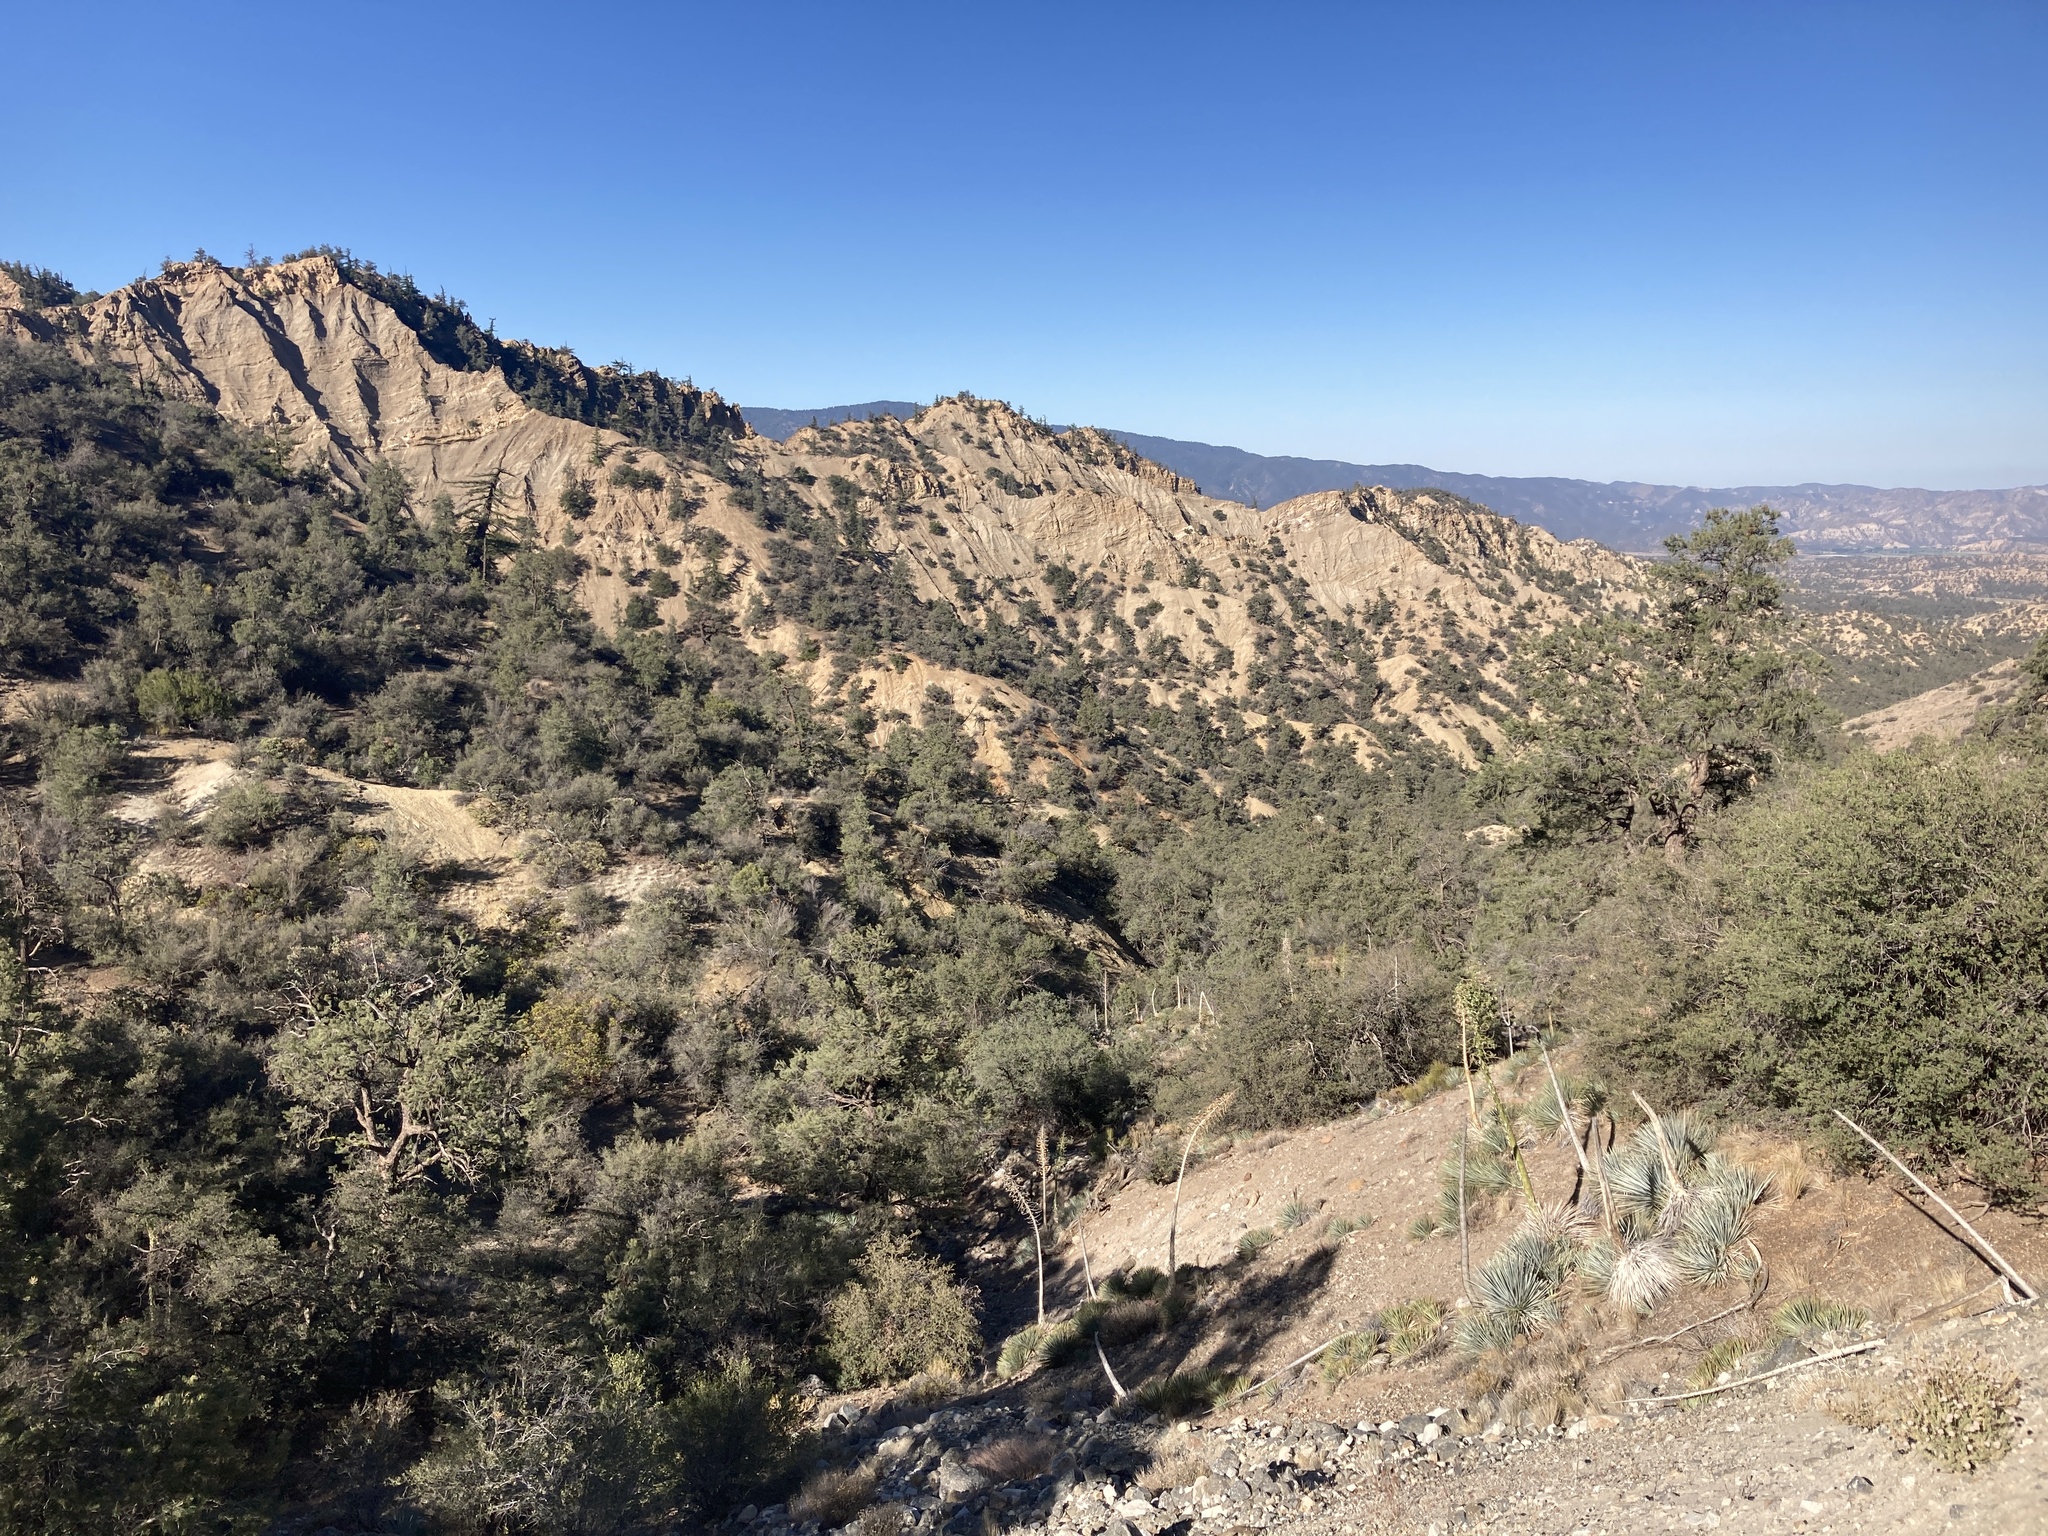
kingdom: Plantae
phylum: Tracheophyta
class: Pinopsida
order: Pinales
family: Pinaceae
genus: Pseudotsuga
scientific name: Pseudotsuga macrocarpa
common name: Big-cone douglas-fir
